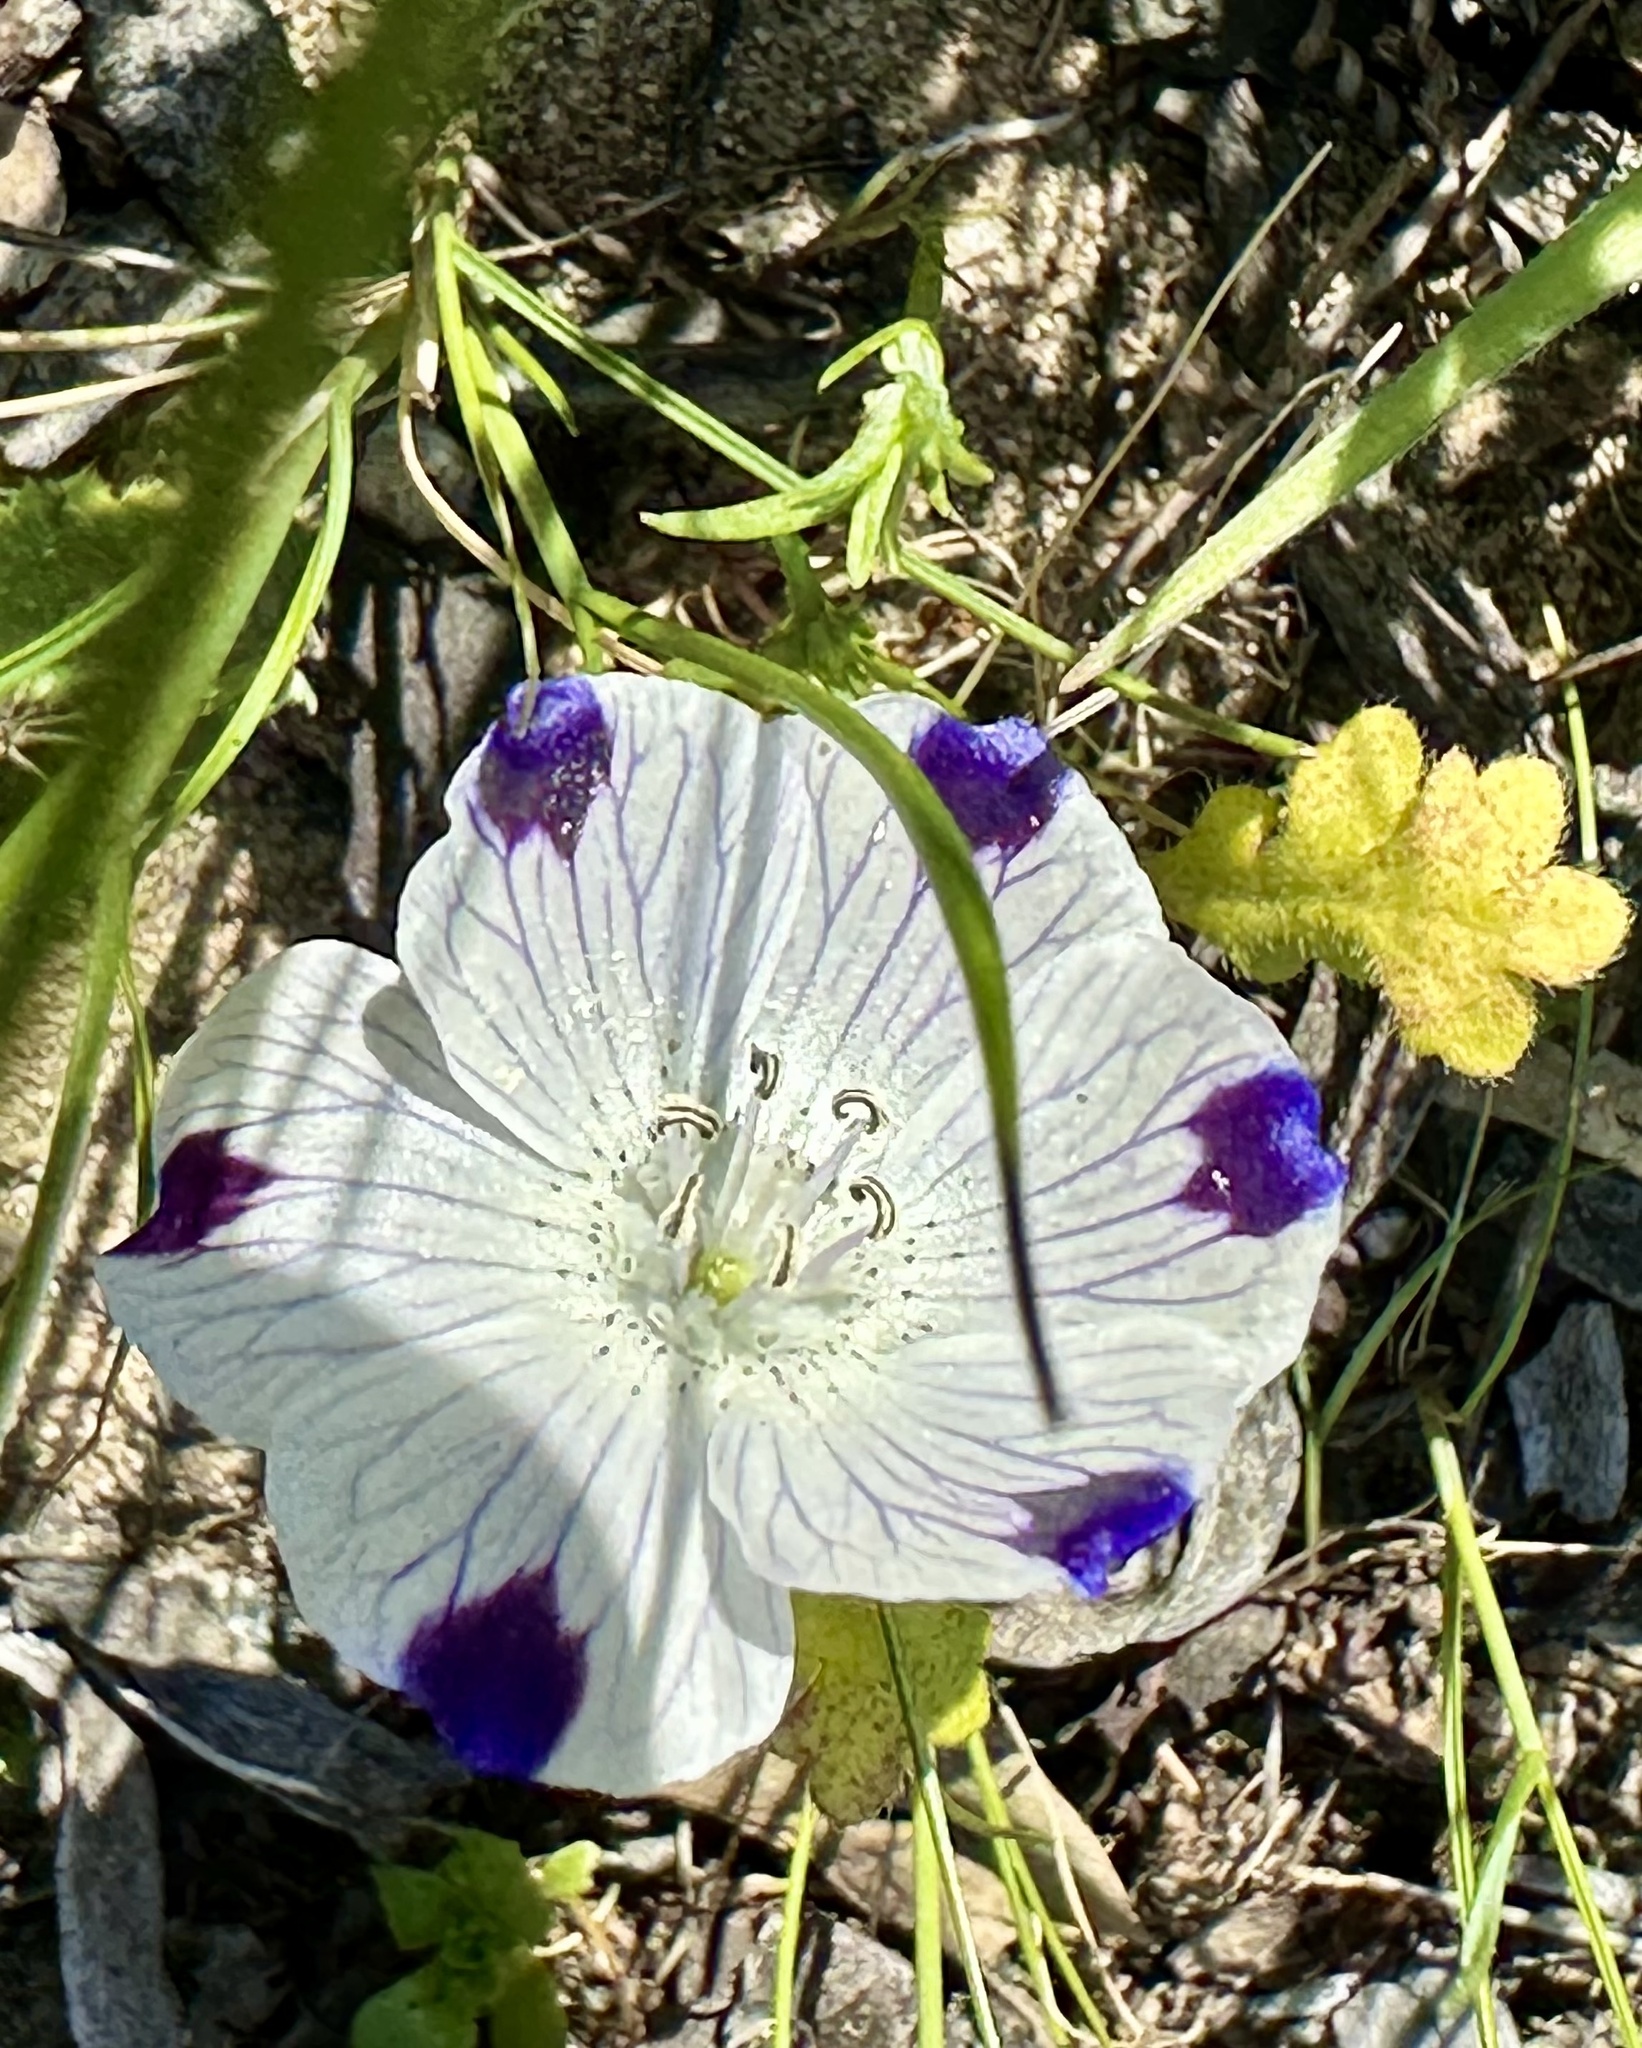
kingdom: Plantae
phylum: Tracheophyta
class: Magnoliopsida
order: Boraginales
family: Hydrophyllaceae
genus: Nemophila
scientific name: Nemophila maculata
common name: Fivespot
